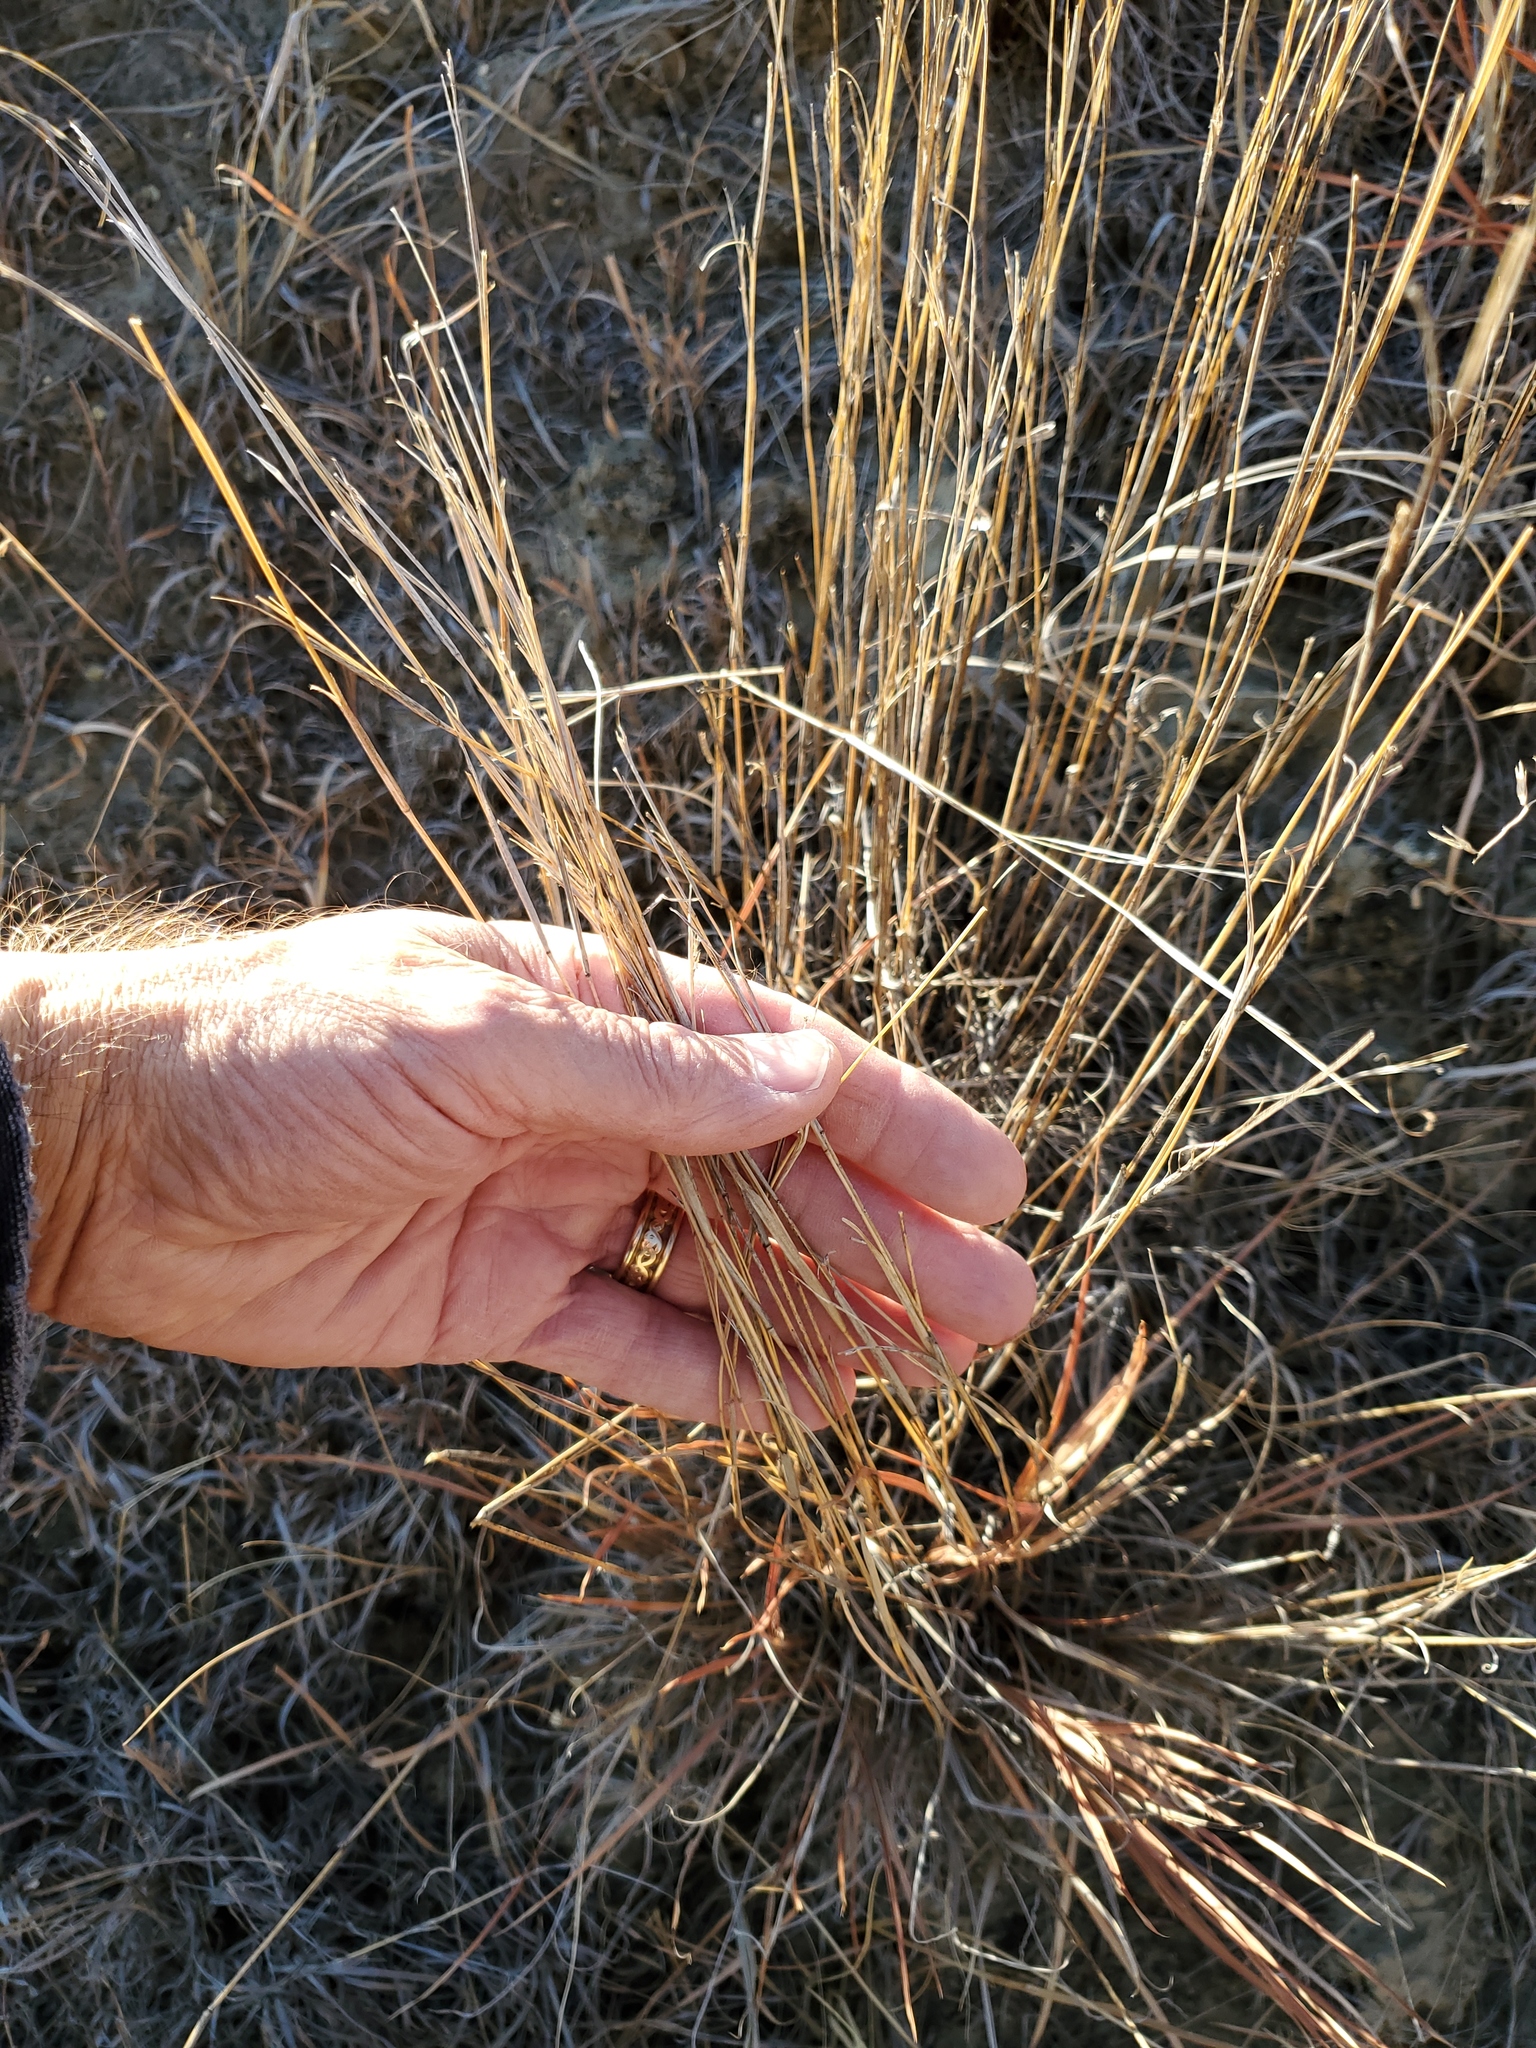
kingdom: Plantae
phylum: Tracheophyta
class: Liliopsida
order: Poales
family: Poaceae
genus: Schizachyrium
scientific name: Schizachyrium scoparium
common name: Little bluestem
